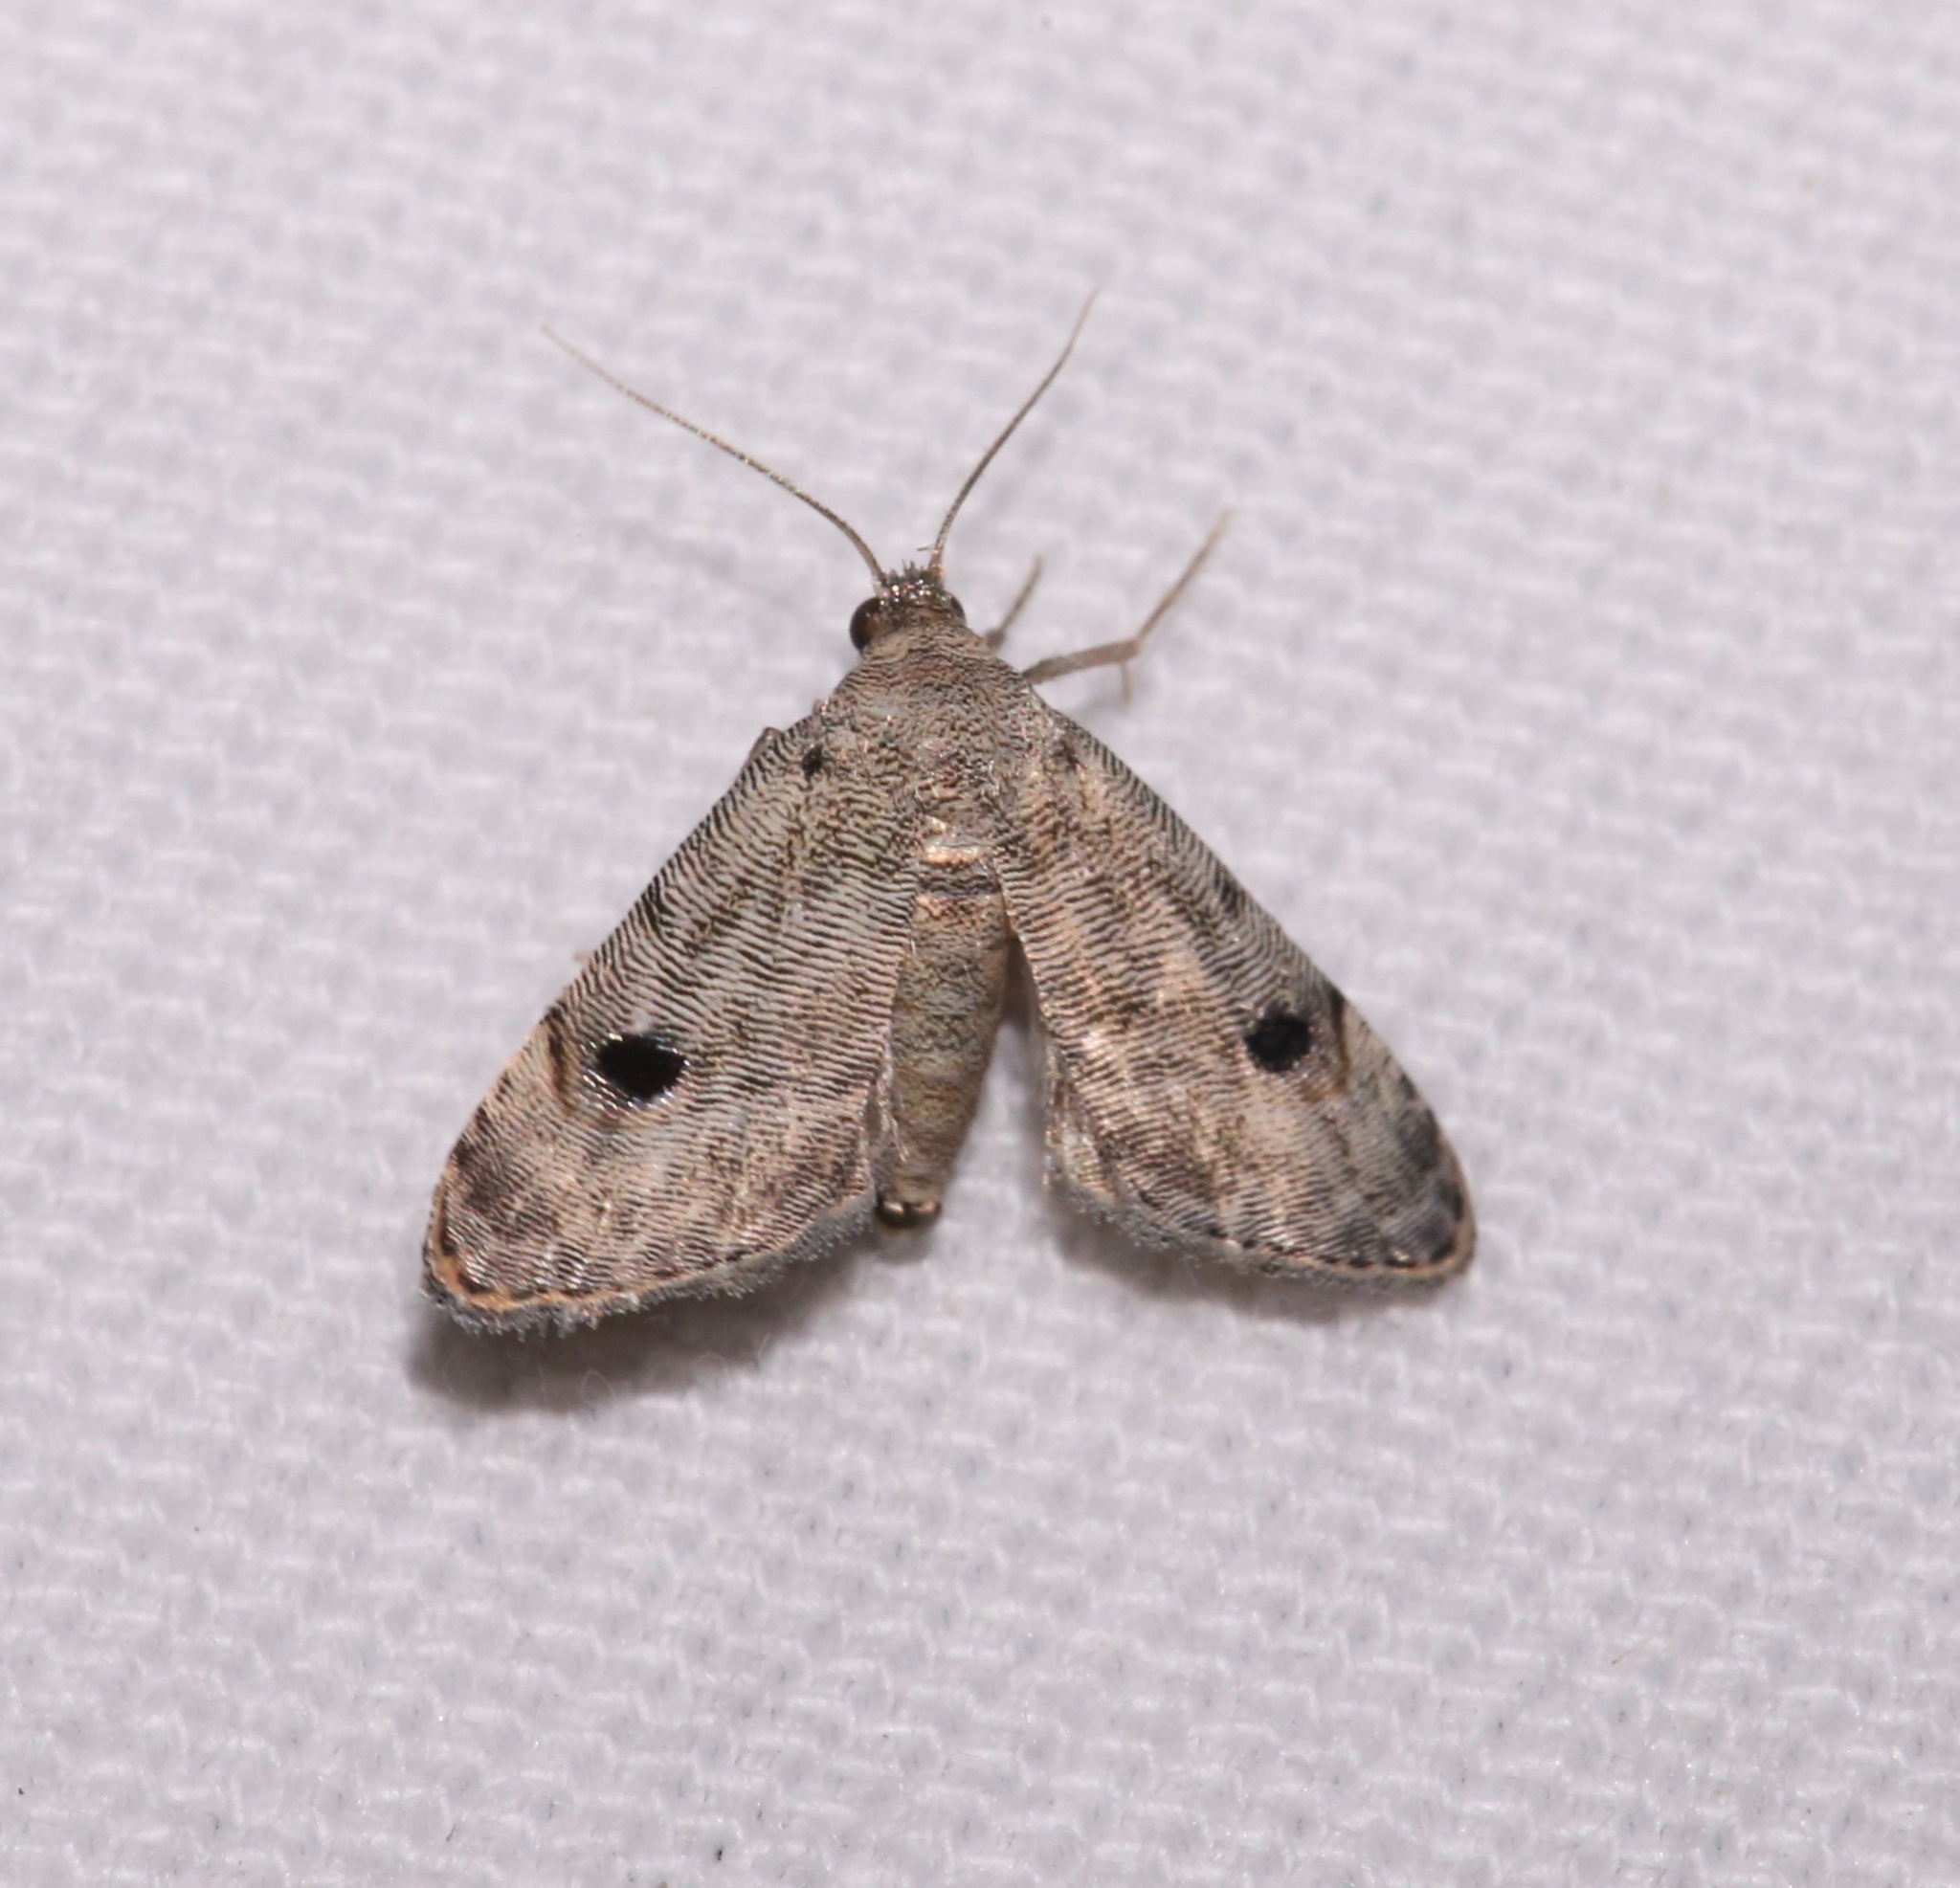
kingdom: Animalia
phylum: Arthropoda
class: Insecta
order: Lepidoptera
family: Noctuidae
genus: Abablemma
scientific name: Abablemma brimleyana
